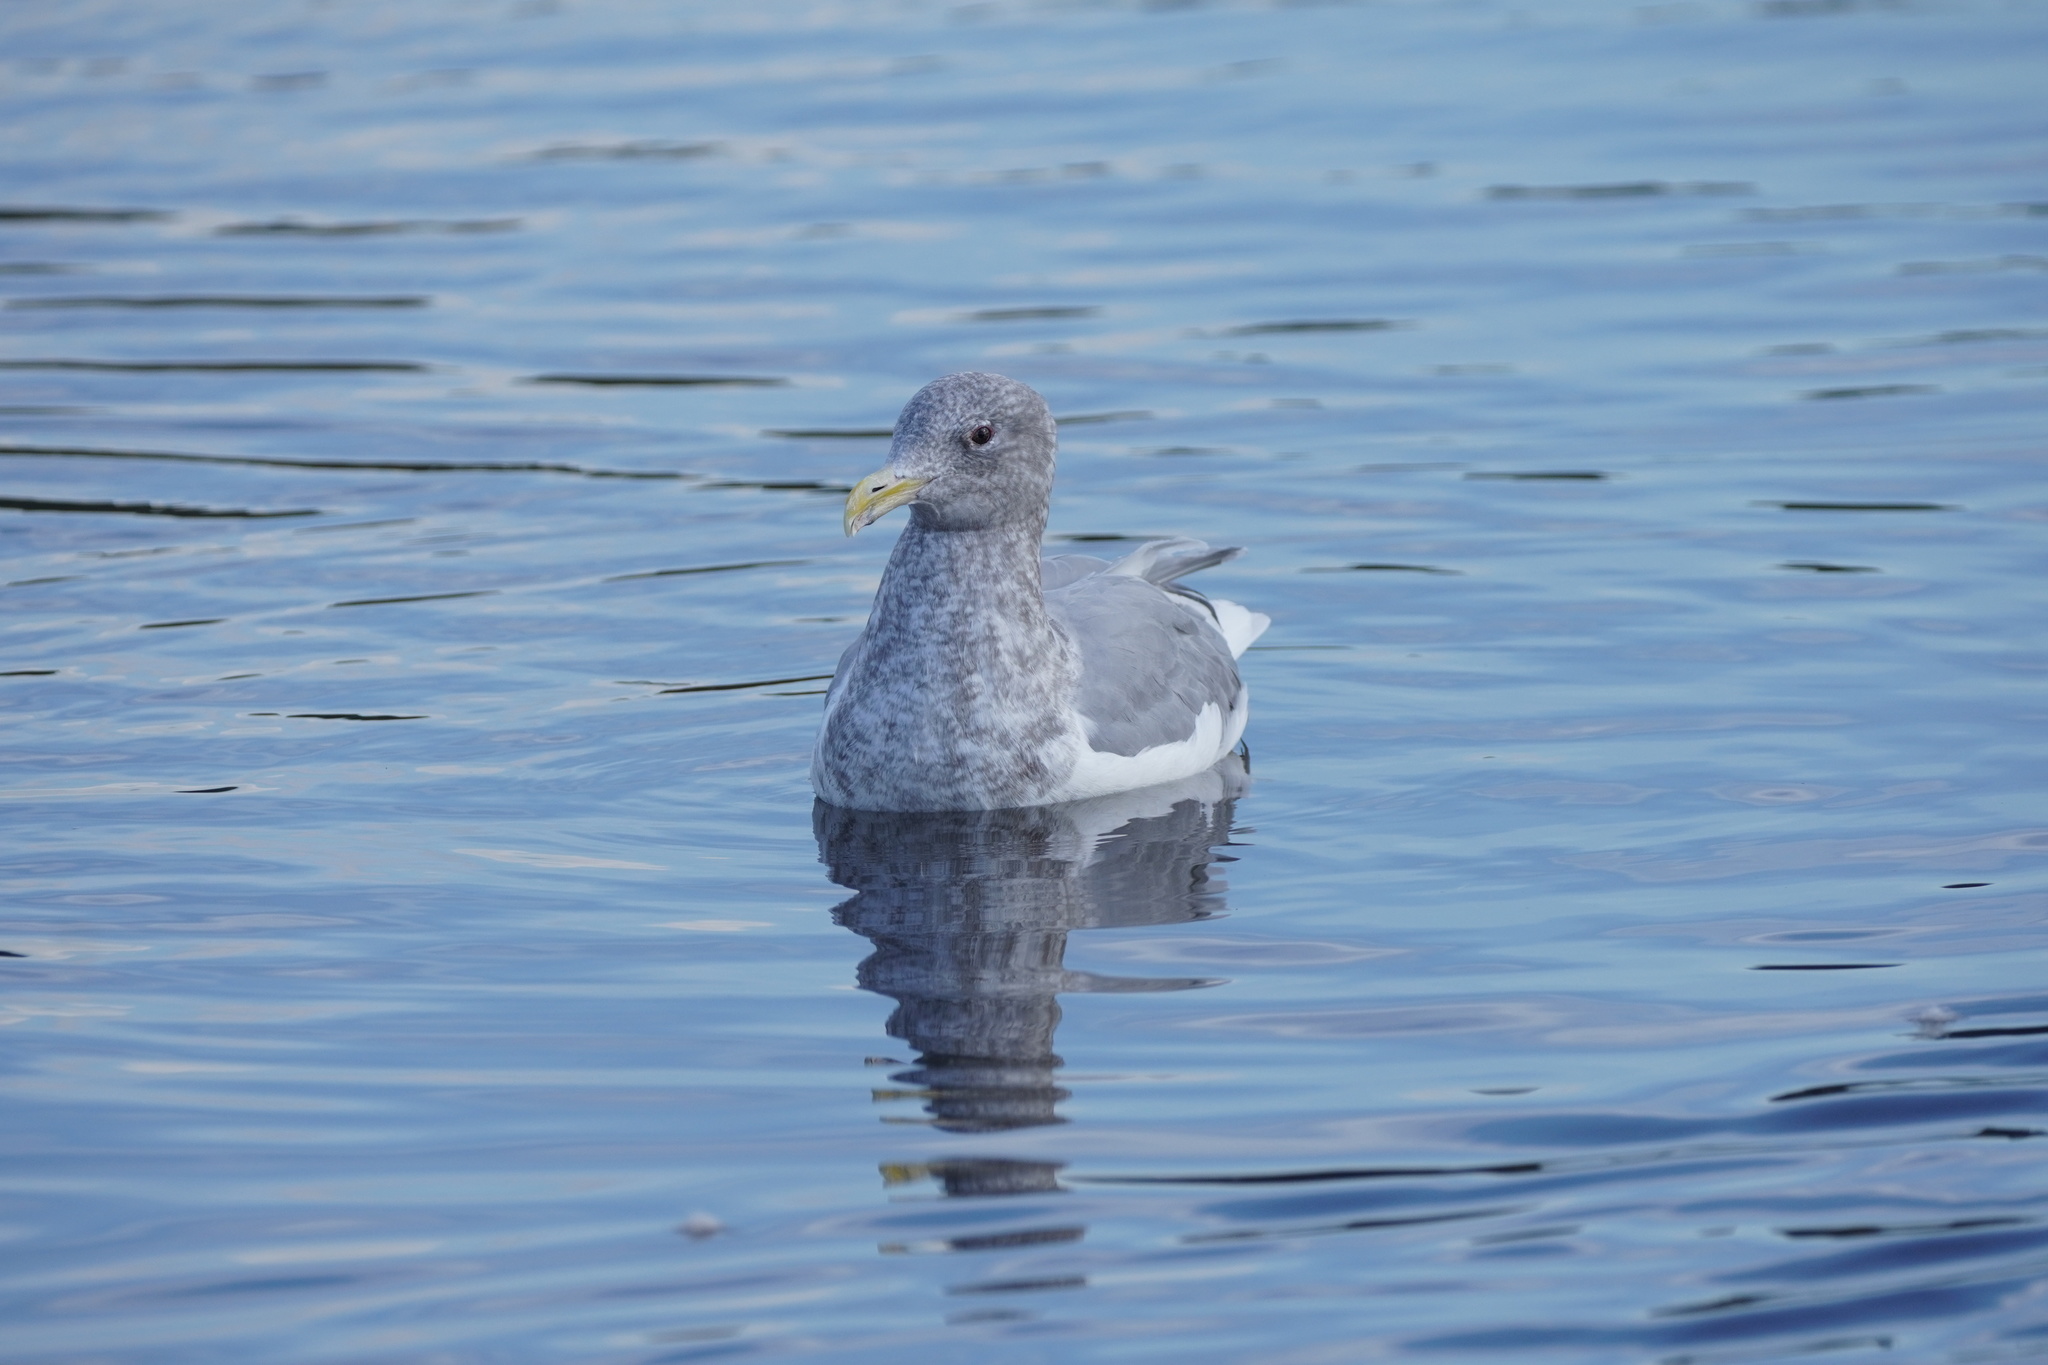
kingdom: Animalia
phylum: Chordata
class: Aves
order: Charadriiformes
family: Laridae
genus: Larus
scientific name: Larus
